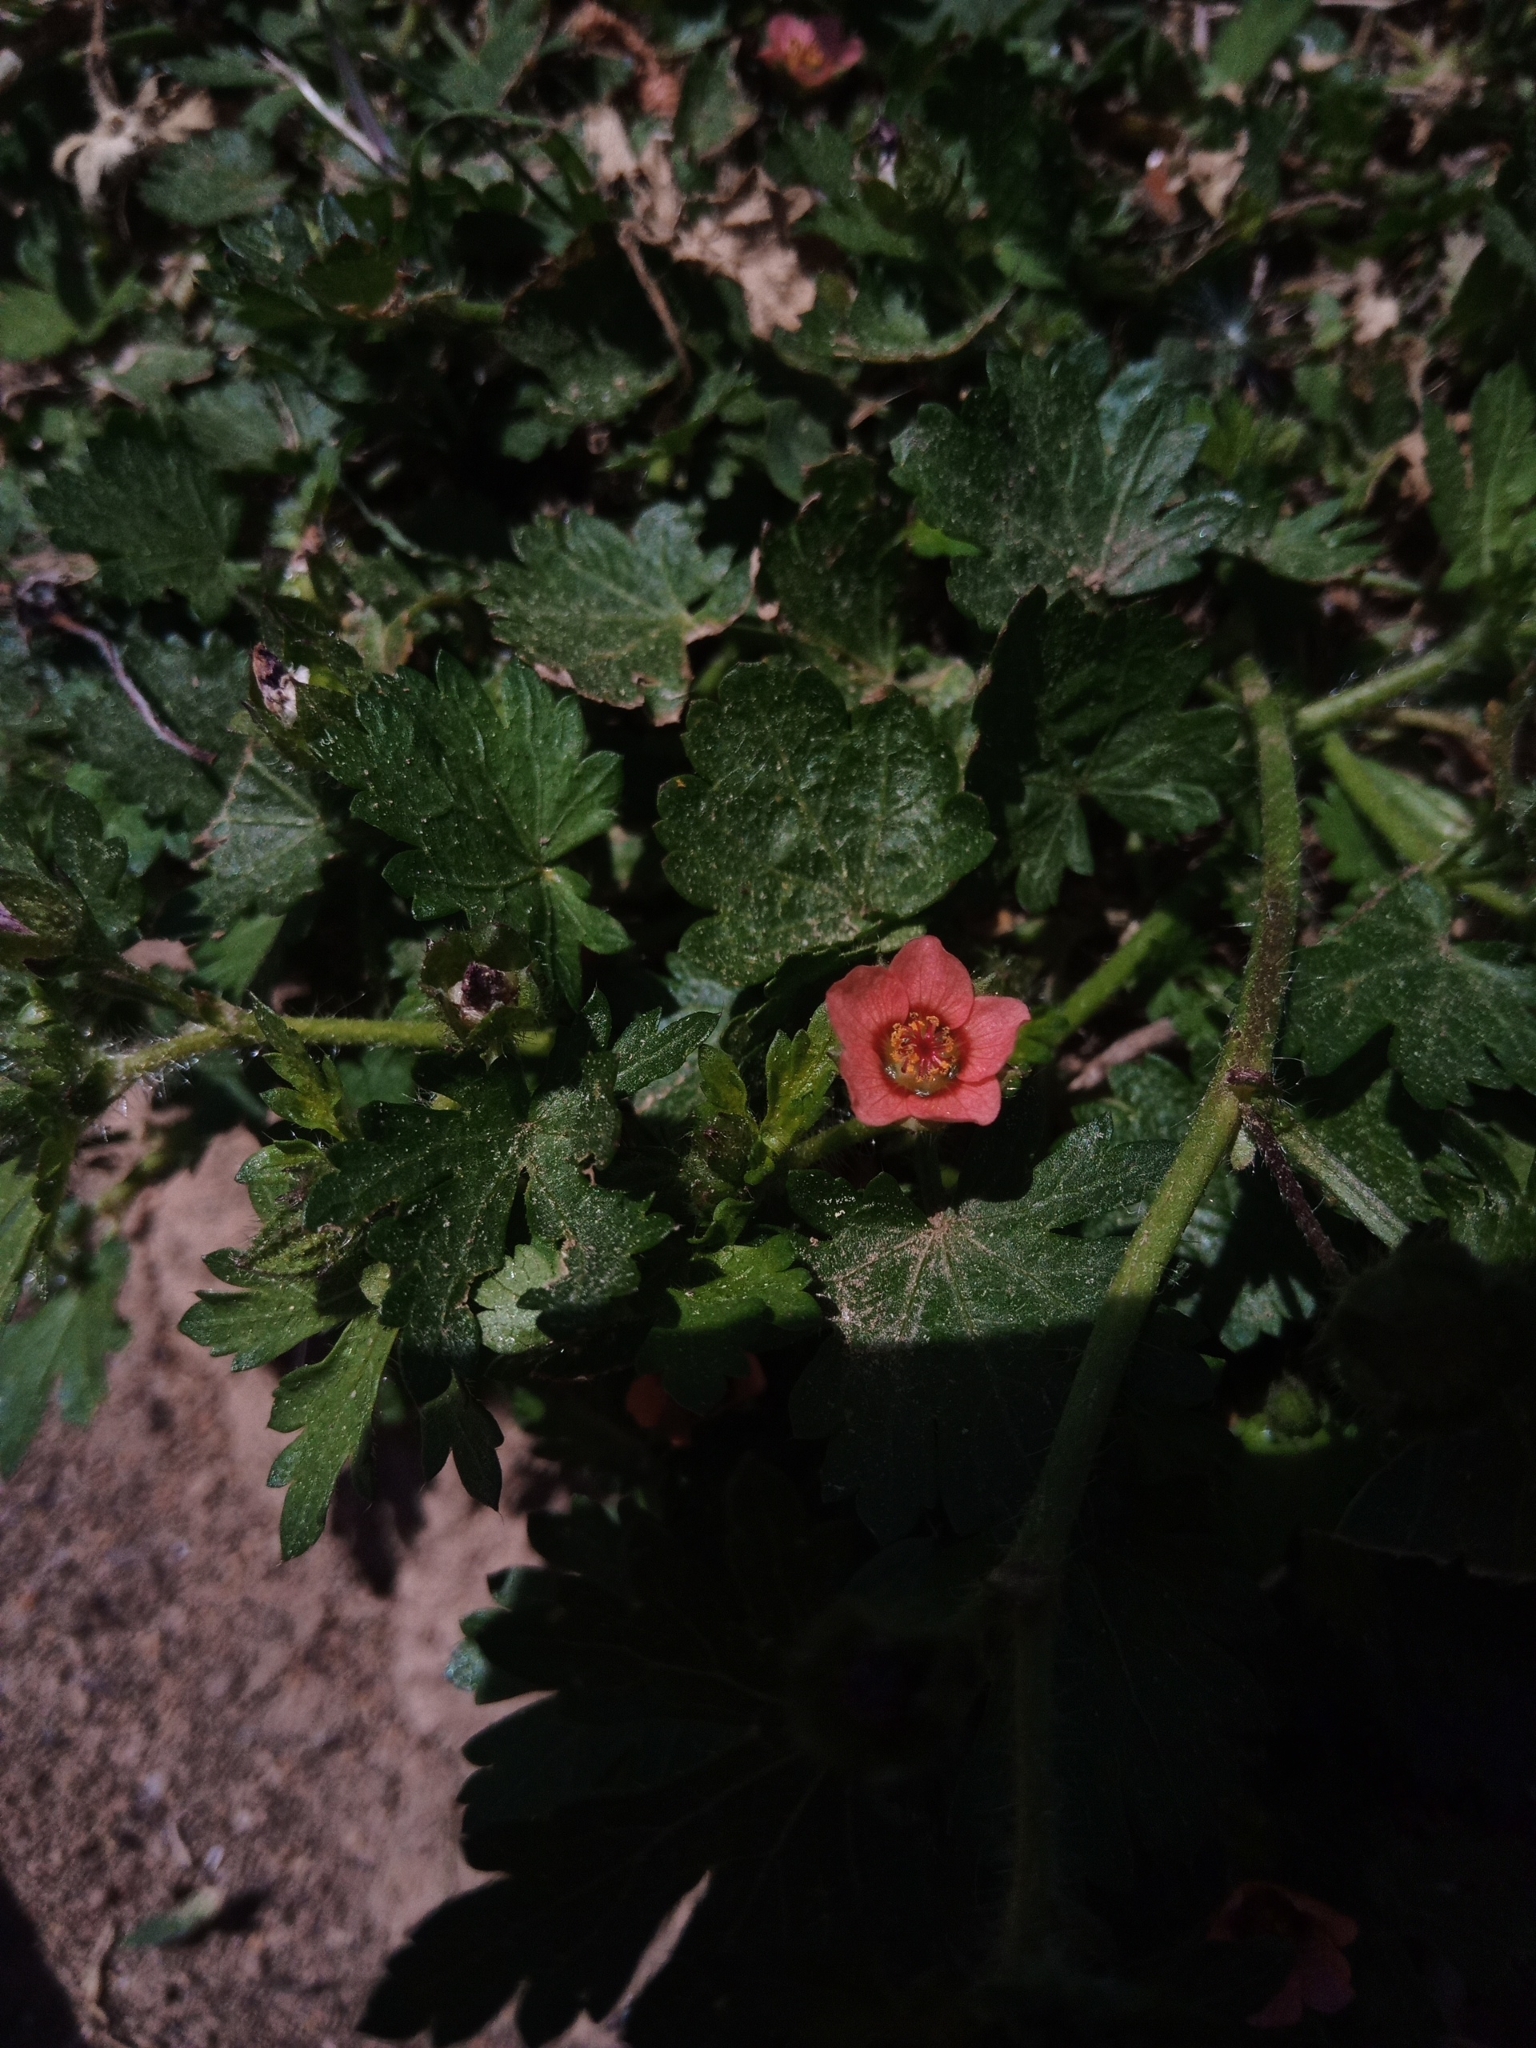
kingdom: Plantae
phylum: Tracheophyta
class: Magnoliopsida
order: Malvales
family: Malvaceae
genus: Modiola
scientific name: Modiola caroliniana
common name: Carolina bristlemallow
